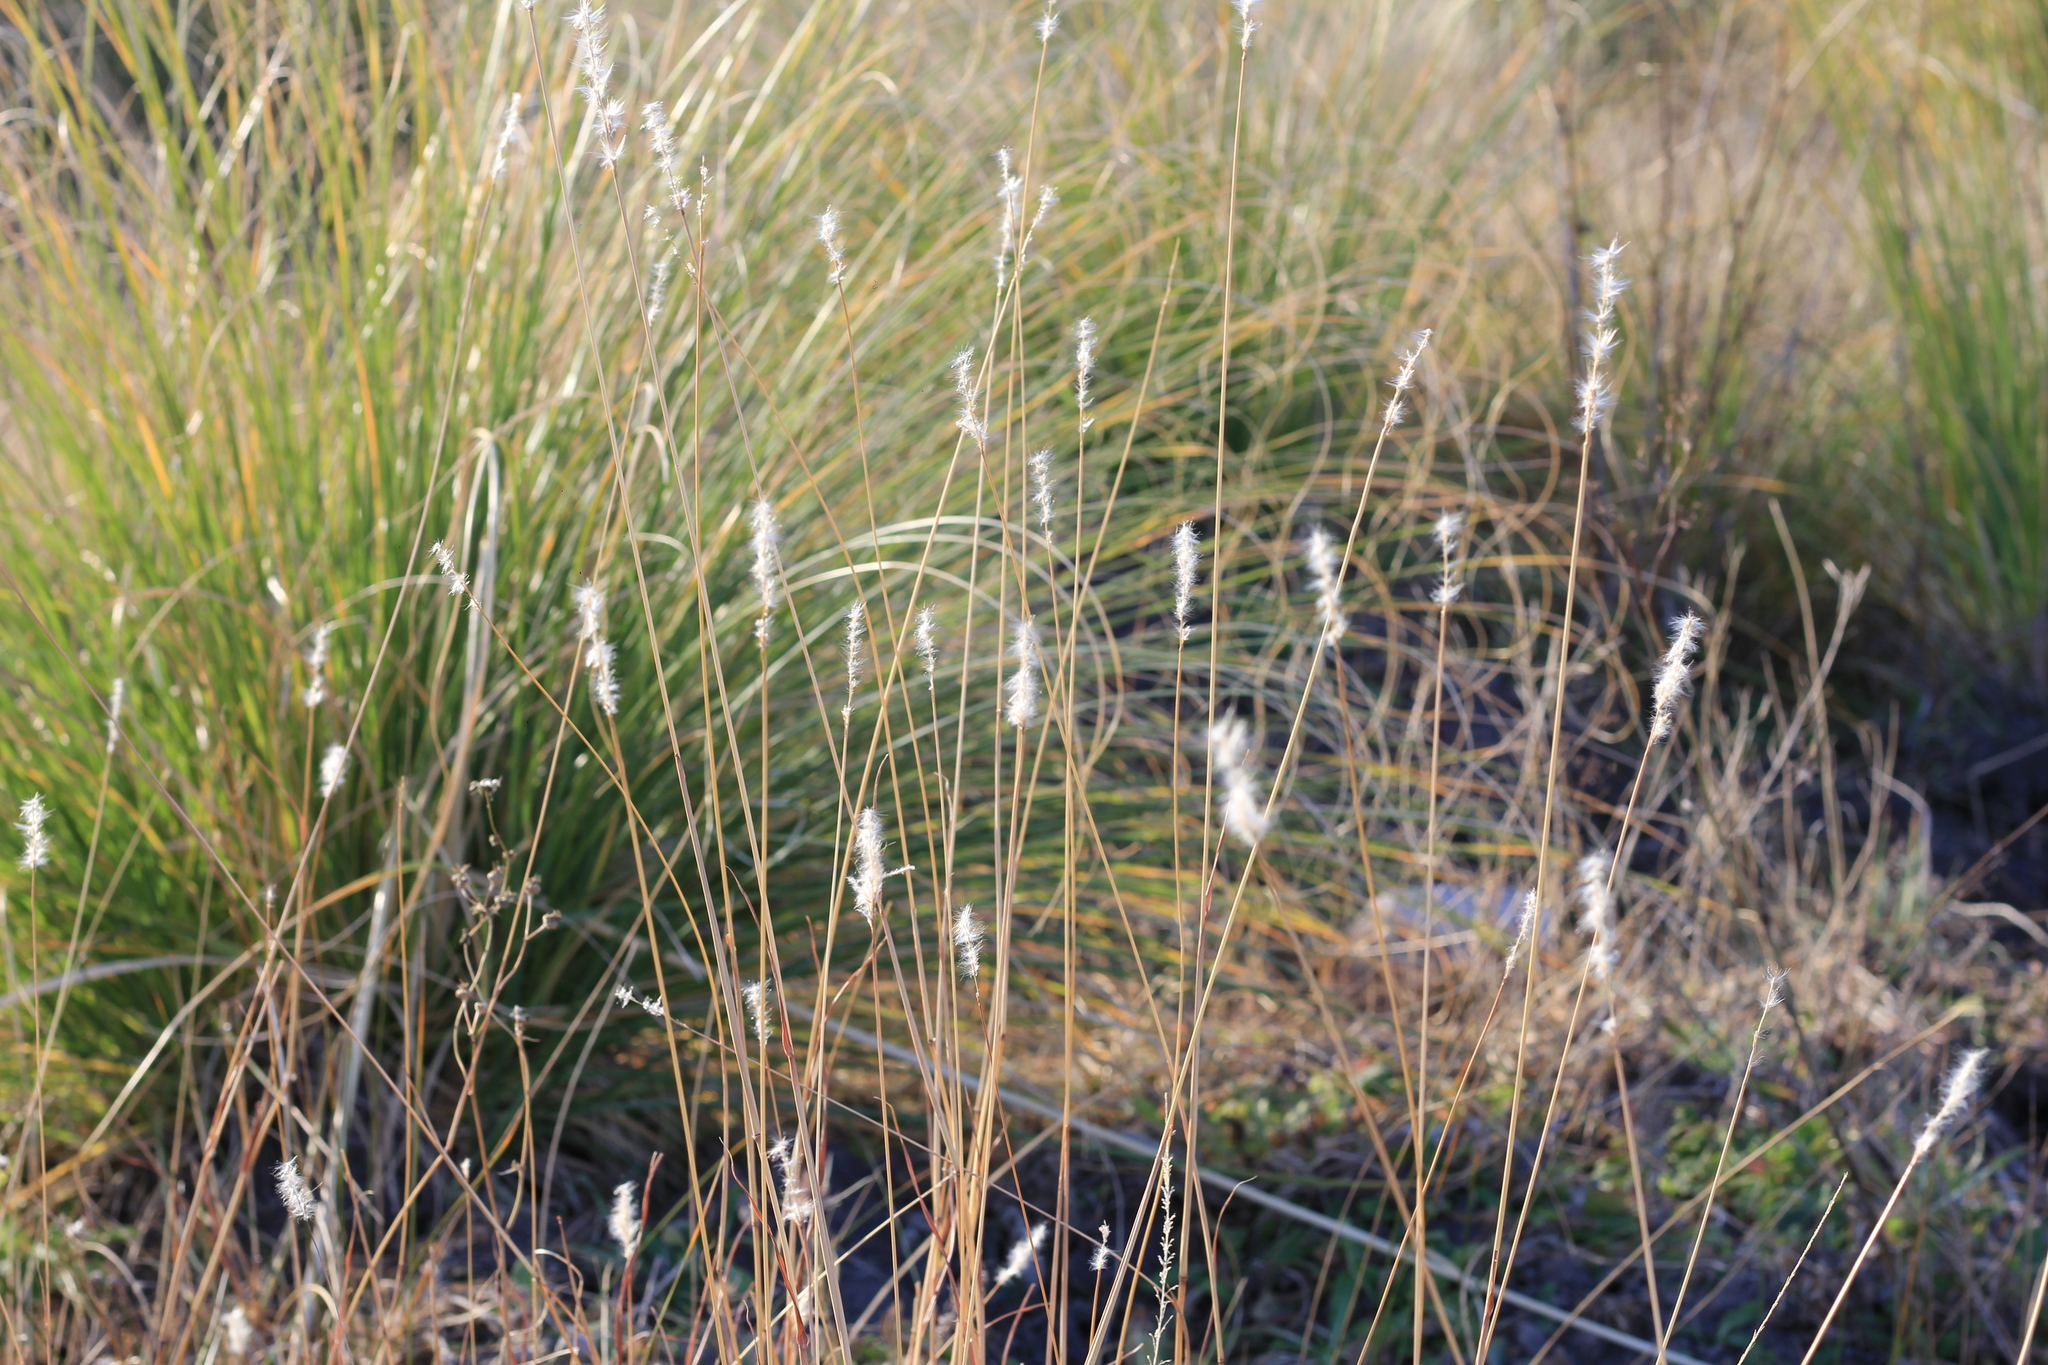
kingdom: Plantae
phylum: Tracheophyta
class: Liliopsida
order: Poales
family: Poaceae
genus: Bothriochloa
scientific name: Bothriochloa springfieldii
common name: Springfield bluestem
